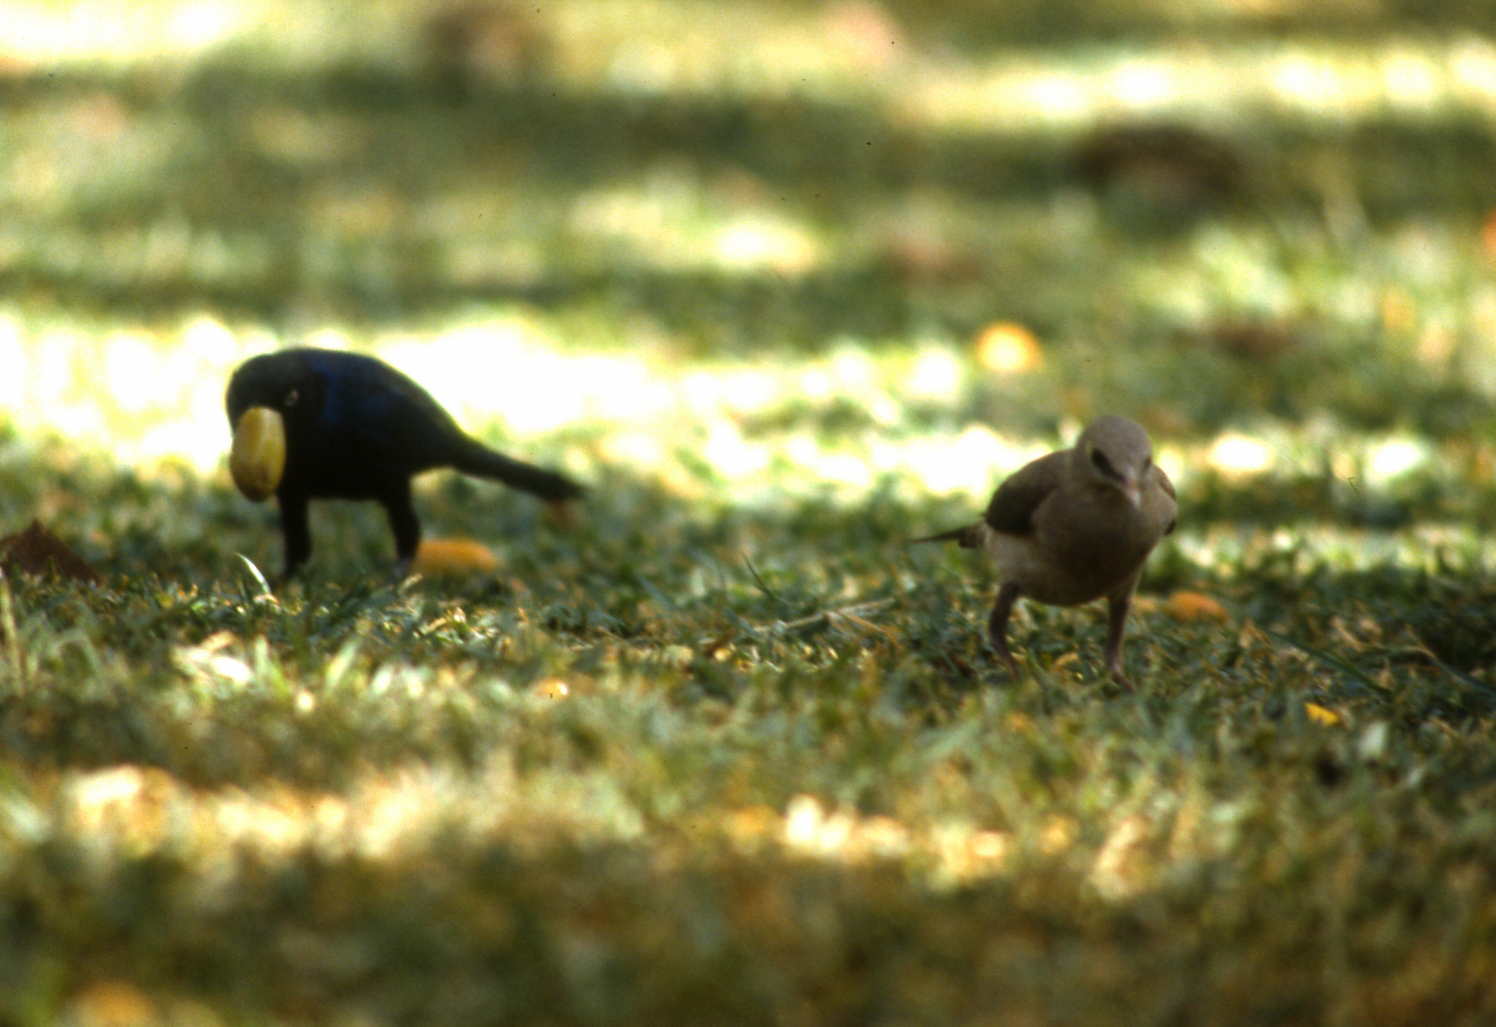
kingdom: Animalia
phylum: Chordata
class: Aves
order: Passeriformes
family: Sturnidae
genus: Creatophora
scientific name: Creatophora cinerea
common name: Wattled starling
